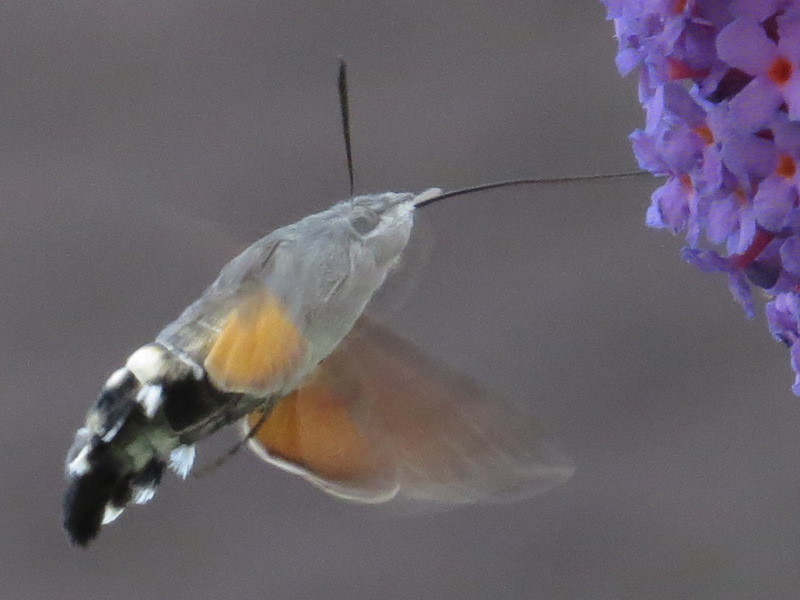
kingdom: Animalia
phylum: Arthropoda
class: Insecta
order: Lepidoptera
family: Sphingidae
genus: Macroglossum
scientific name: Macroglossum stellatarum
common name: Humming-bird hawk-moth
